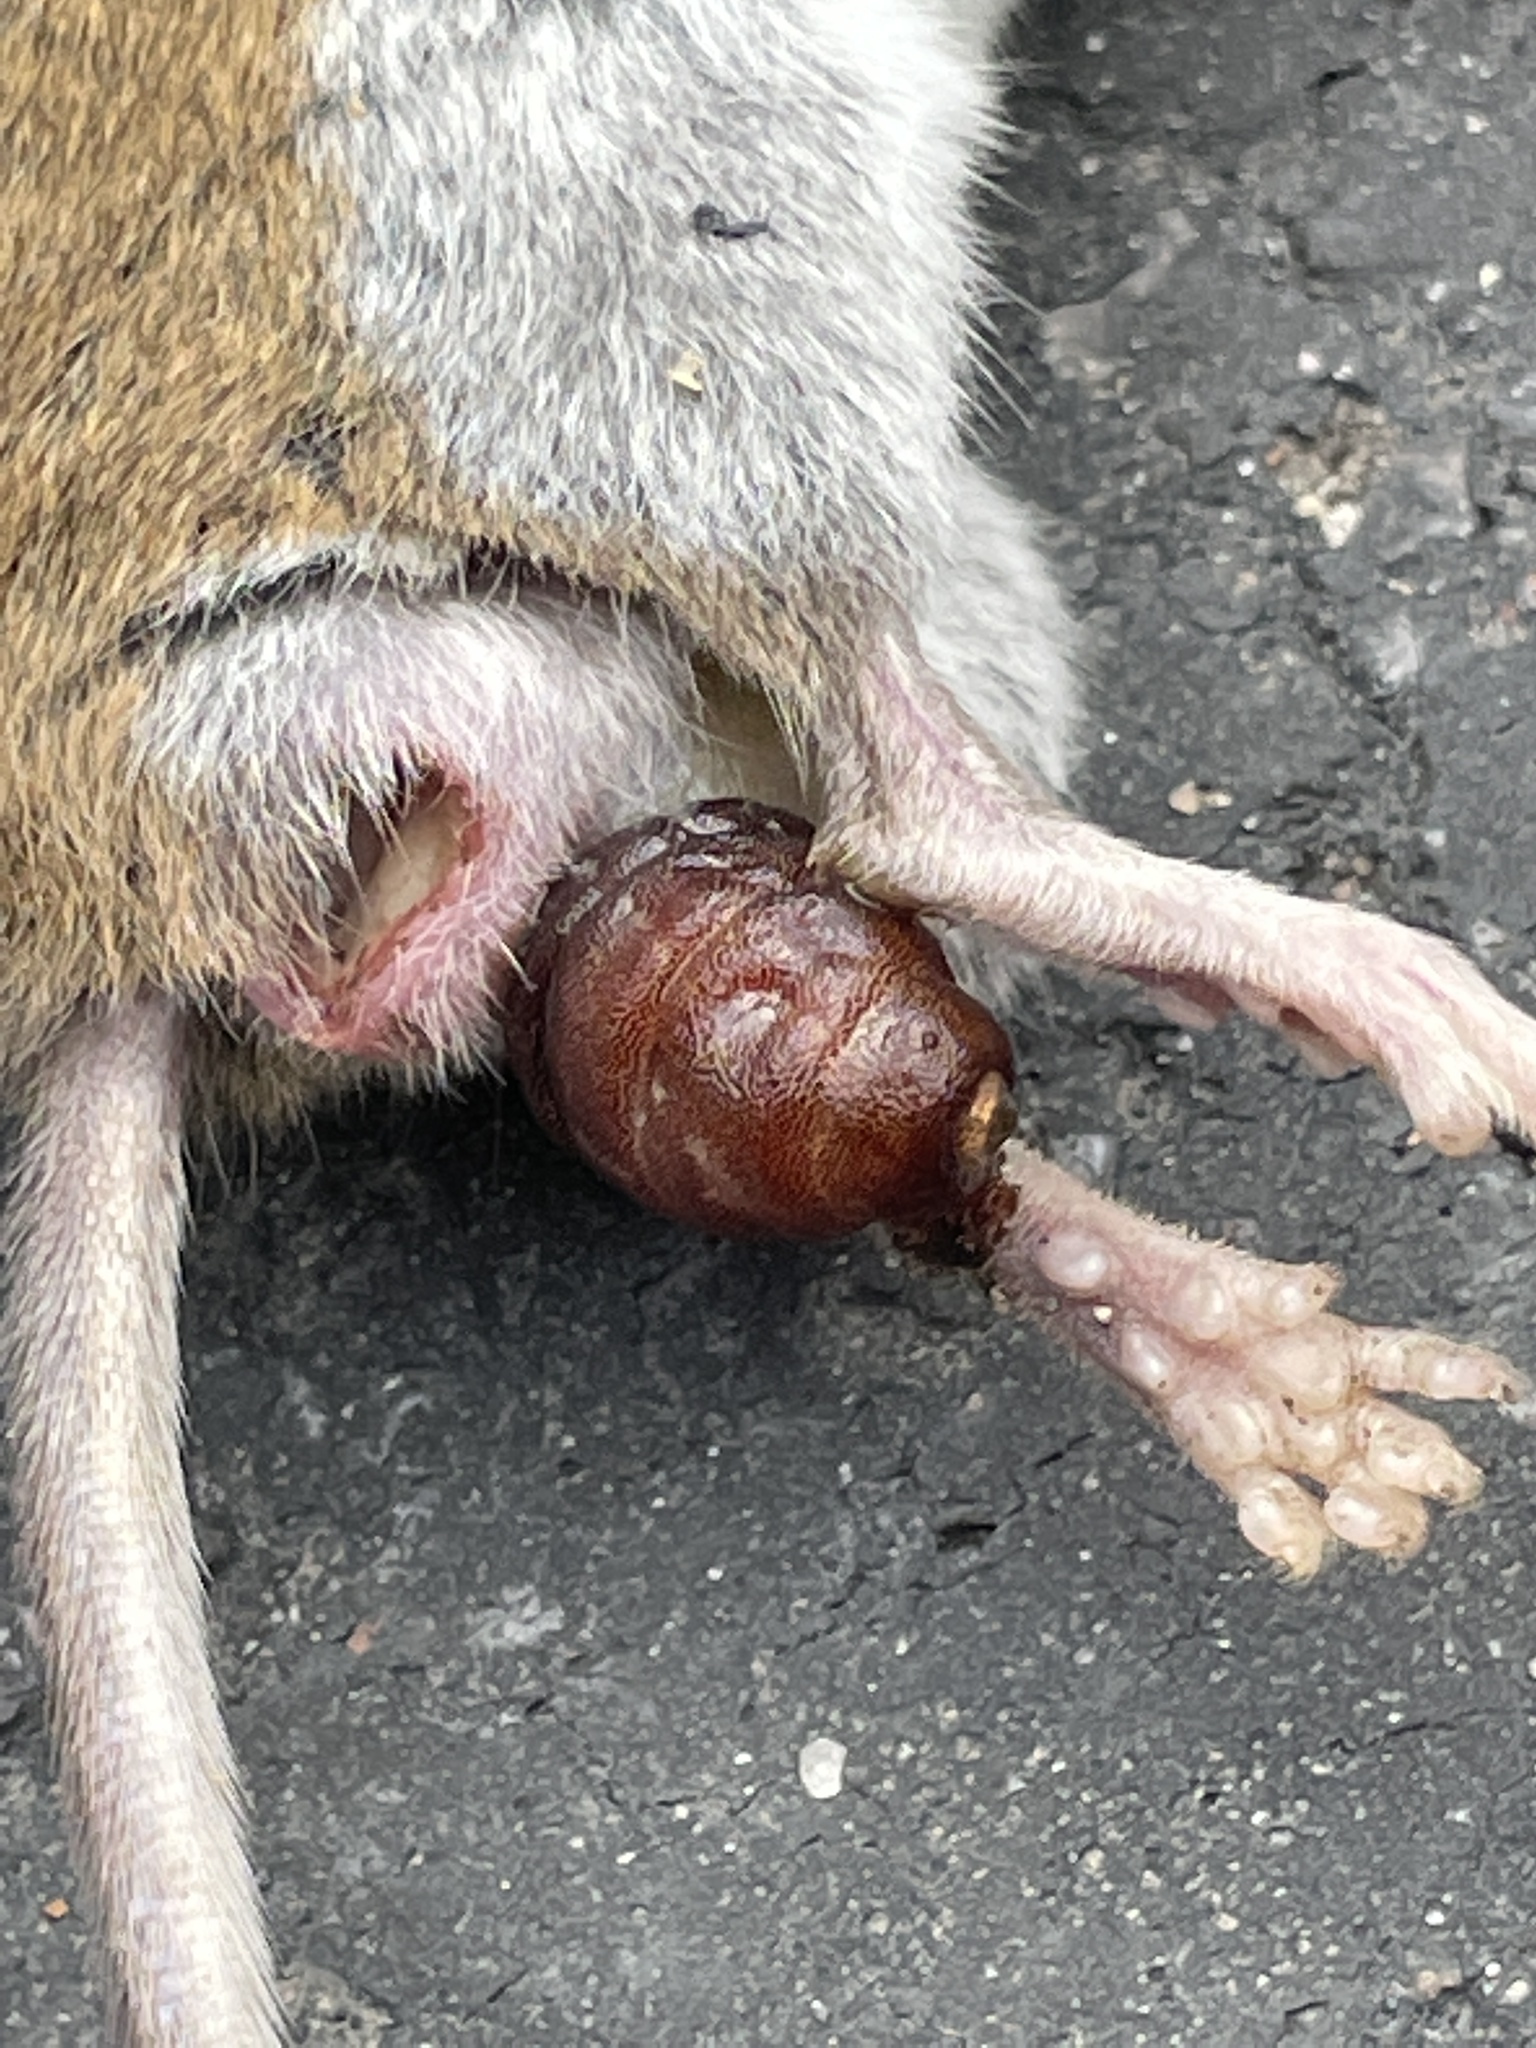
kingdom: Animalia
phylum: Arthropoda
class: Insecta
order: Diptera
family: Oestridae
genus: Cuterebra
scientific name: Cuterebra fontinella
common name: Mouse bot fly
